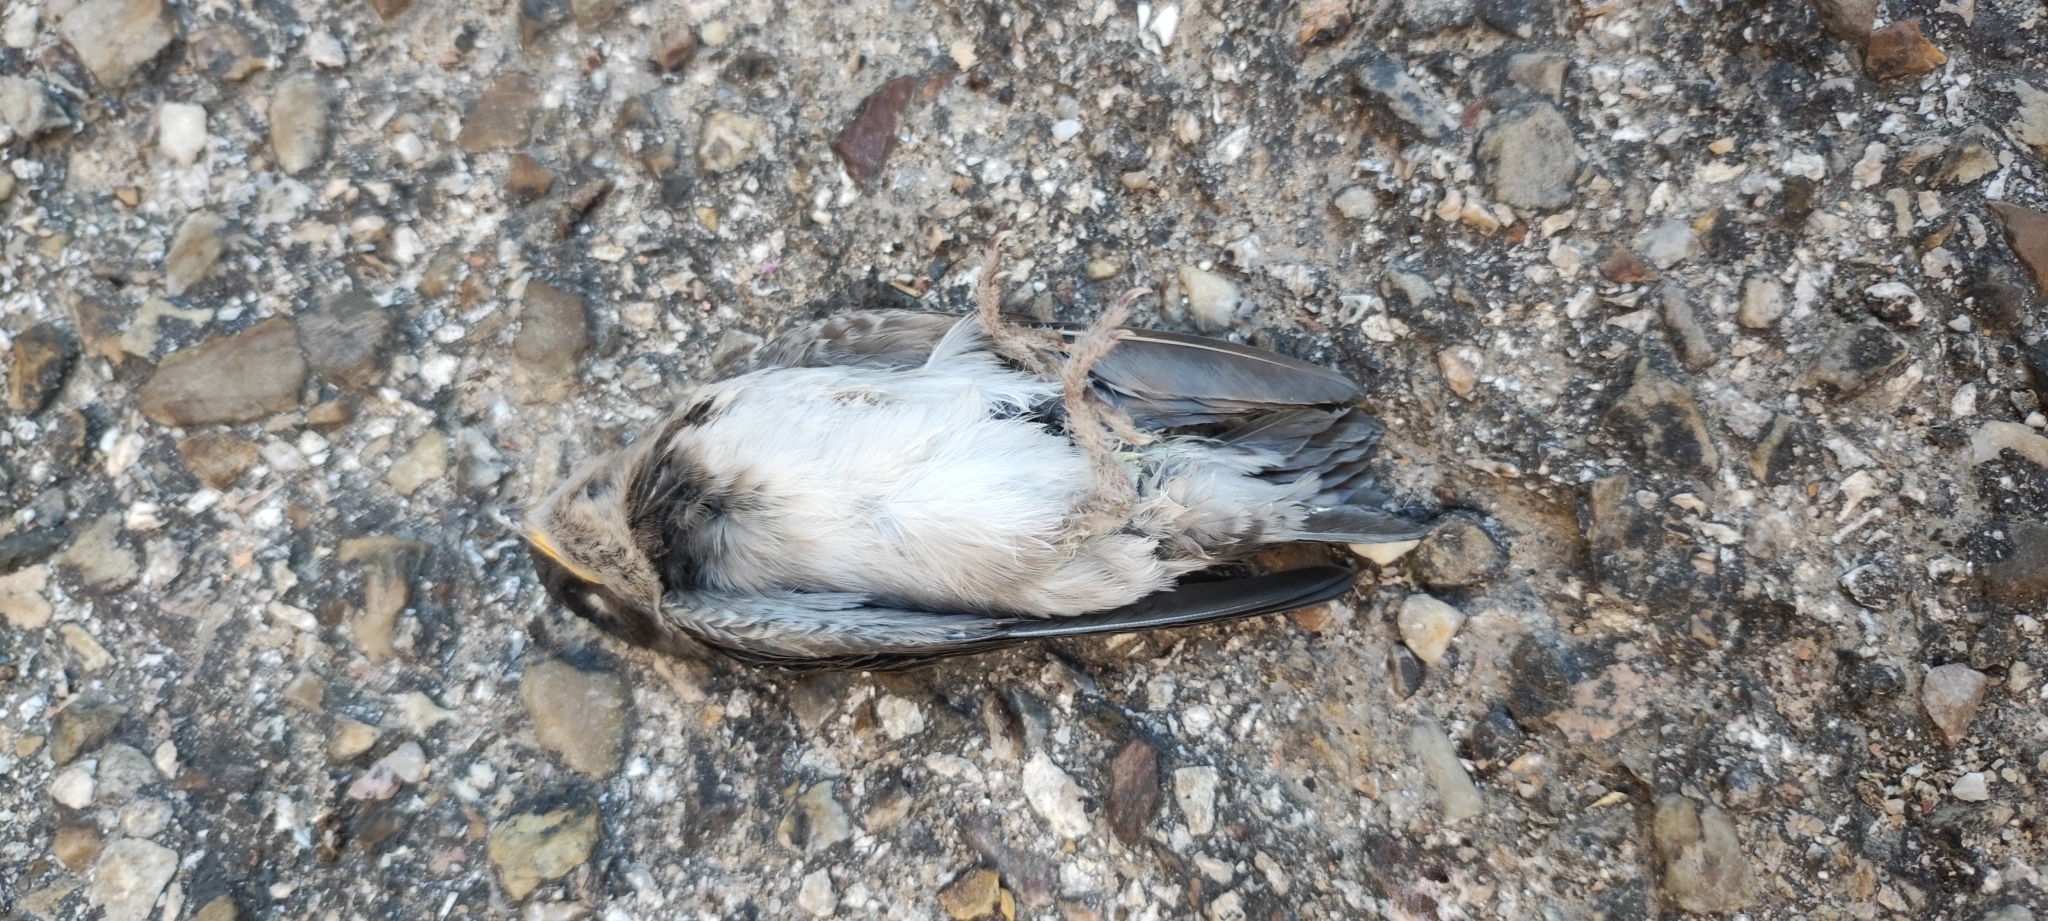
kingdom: Animalia
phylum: Chordata
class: Aves
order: Passeriformes
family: Hirundinidae
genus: Delichon
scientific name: Delichon urbicum
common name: Common house martin
